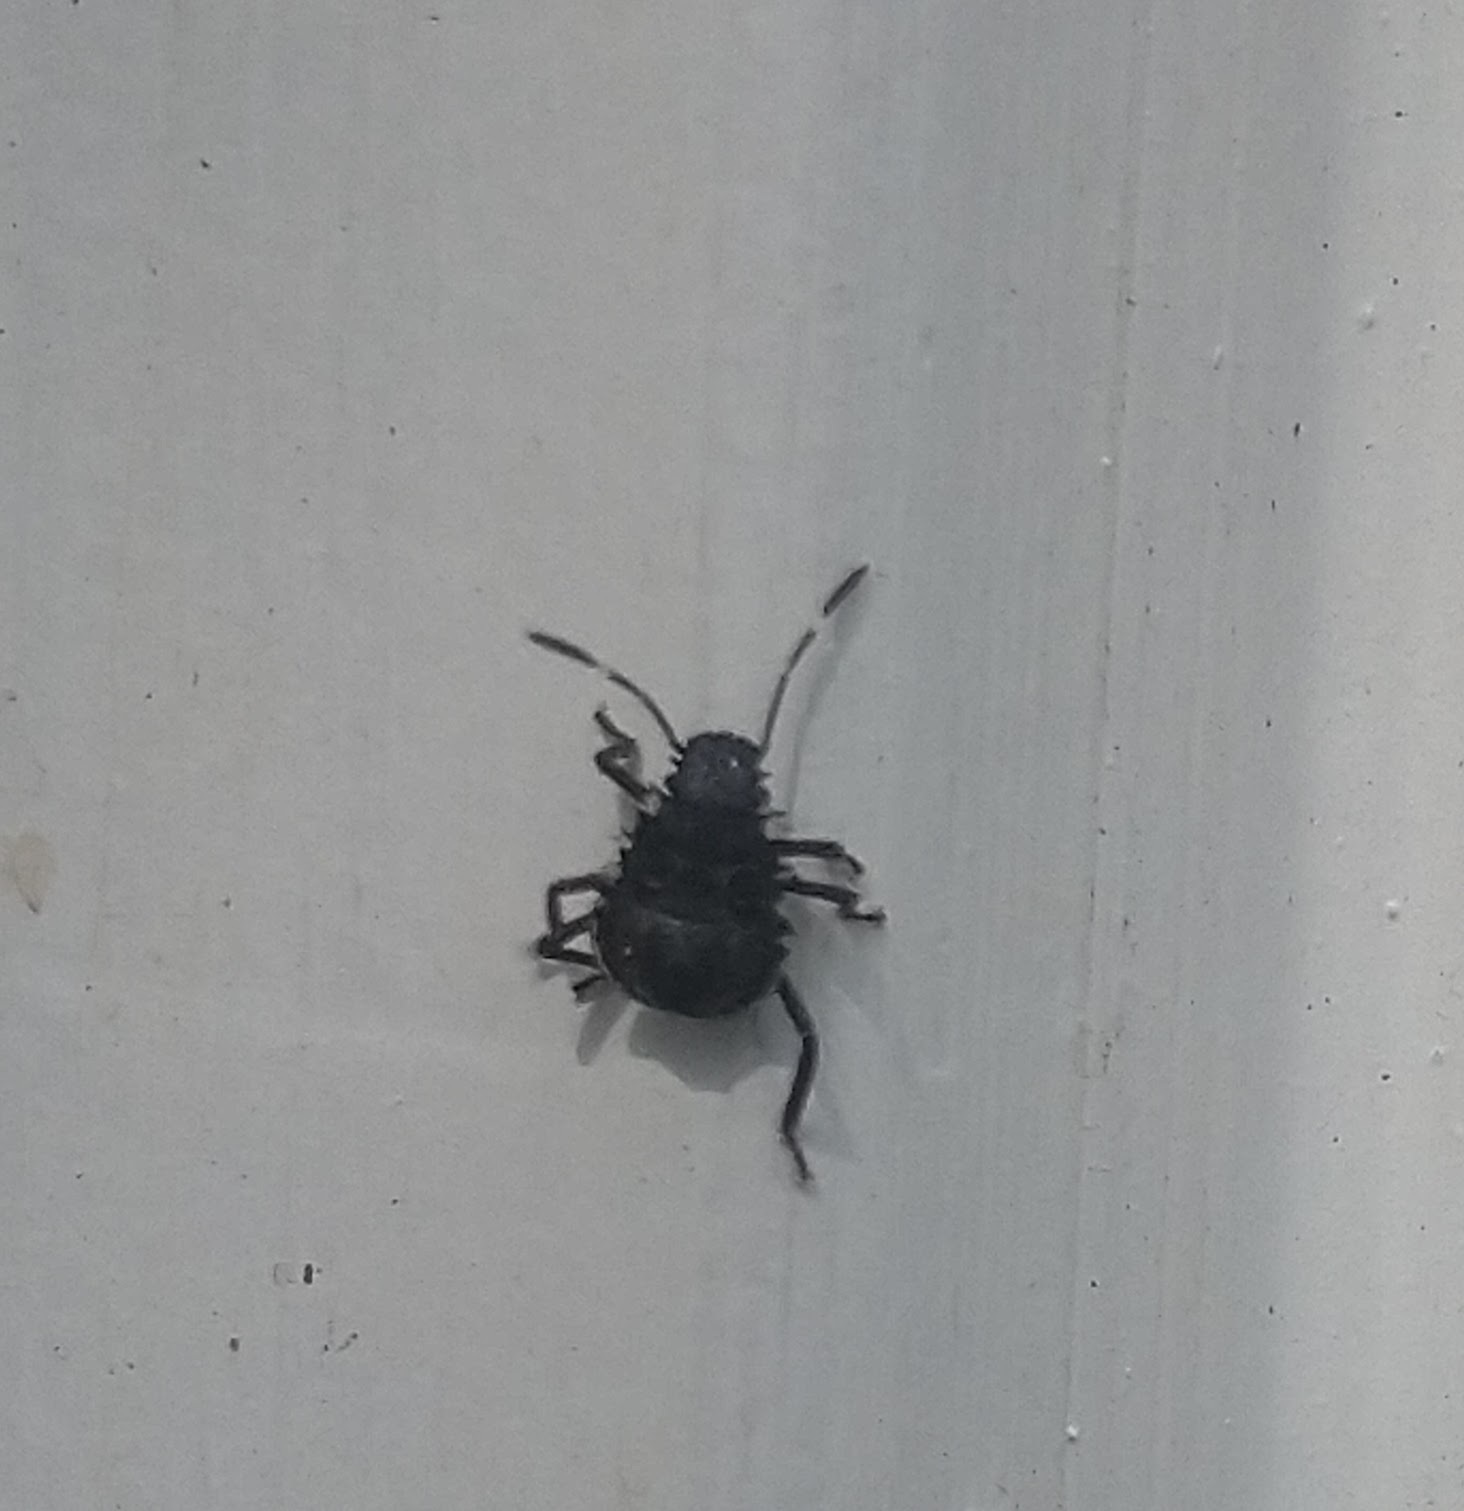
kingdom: Animalia
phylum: Arthropoda
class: Insecta
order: Hemiptera
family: Pentatomidae
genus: Halyomorpha
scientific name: Halyomorpha halys
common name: Brown marmorated stink bug
